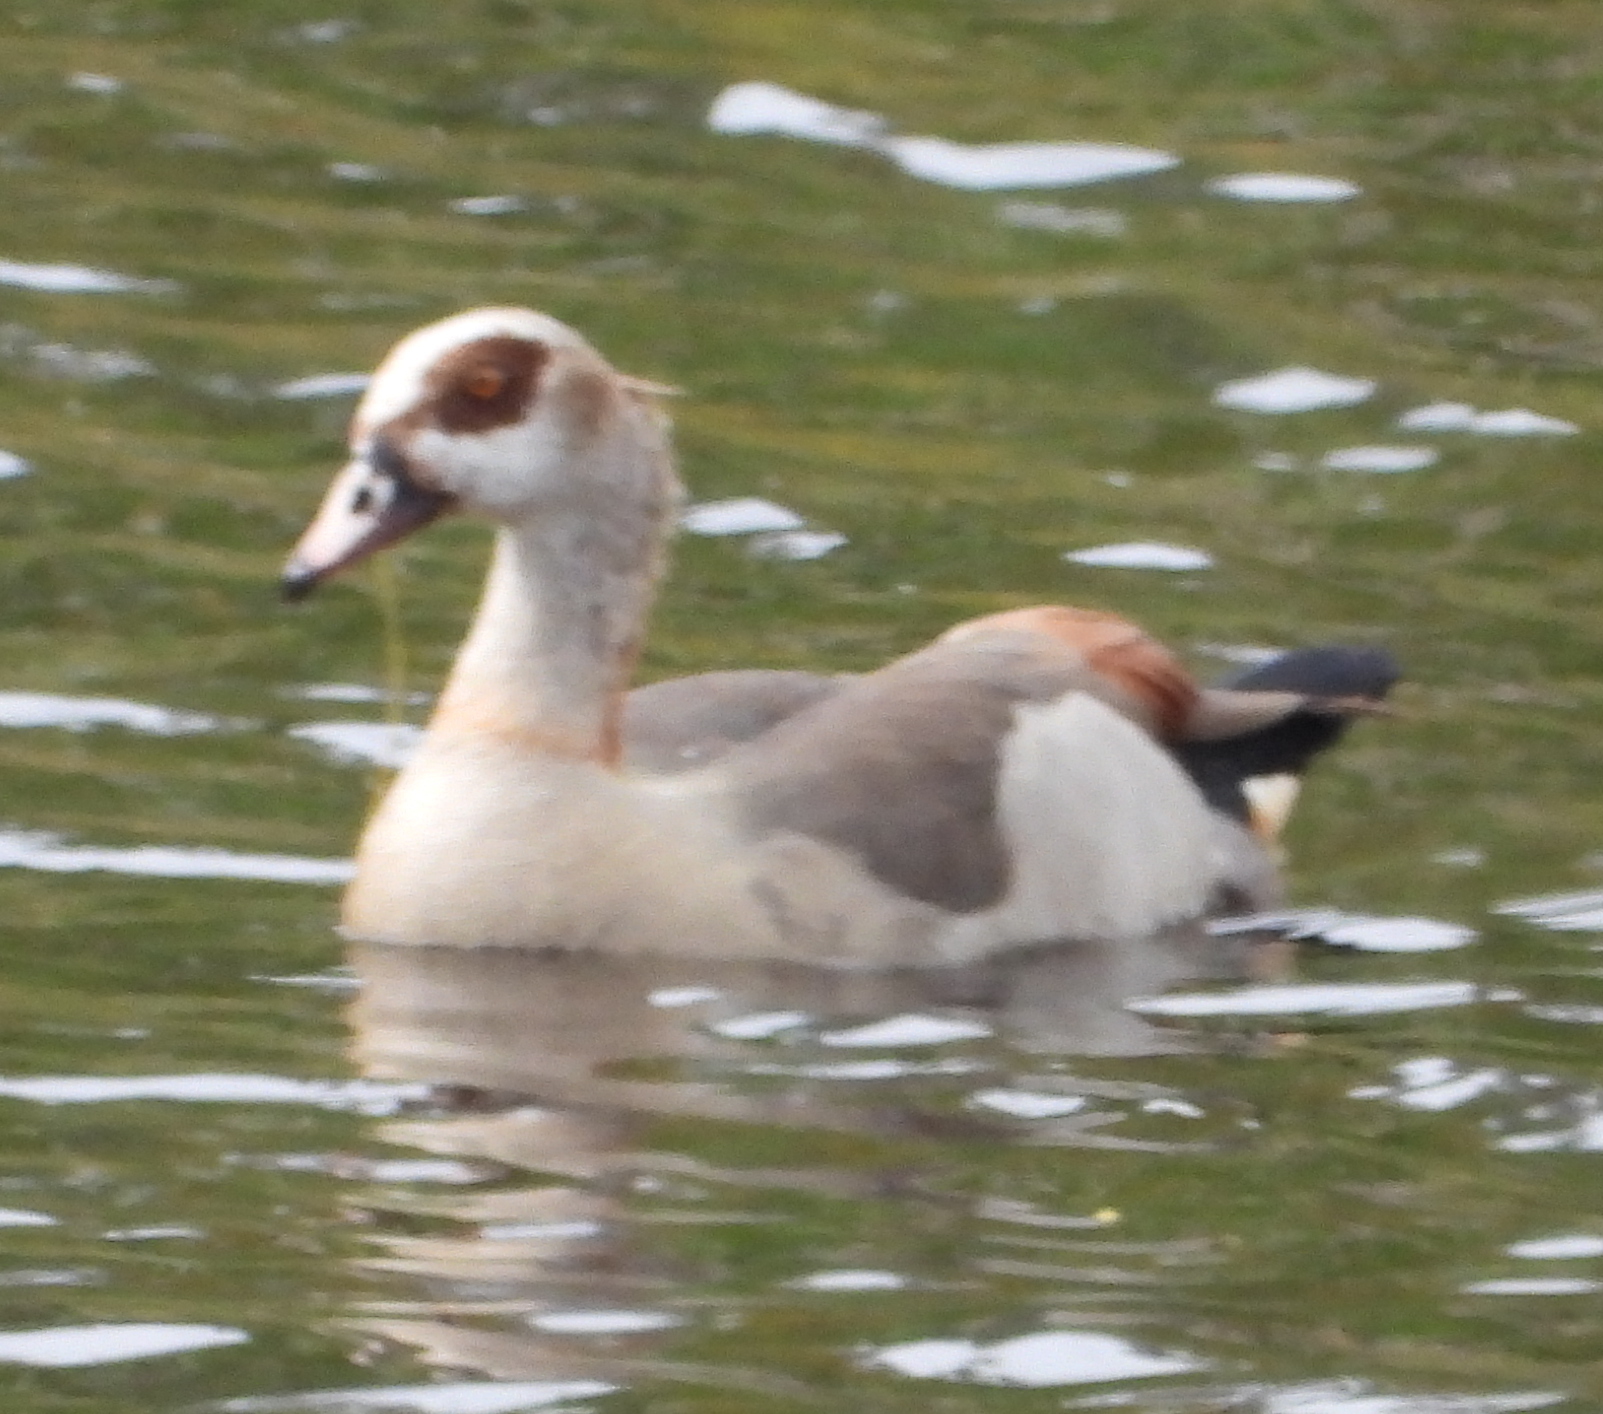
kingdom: Animalia
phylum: Chordata
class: Aves
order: Anseriformes
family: Anatidae
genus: Alopochen
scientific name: Alopochen aegyptiaca
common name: Egyptian goose
